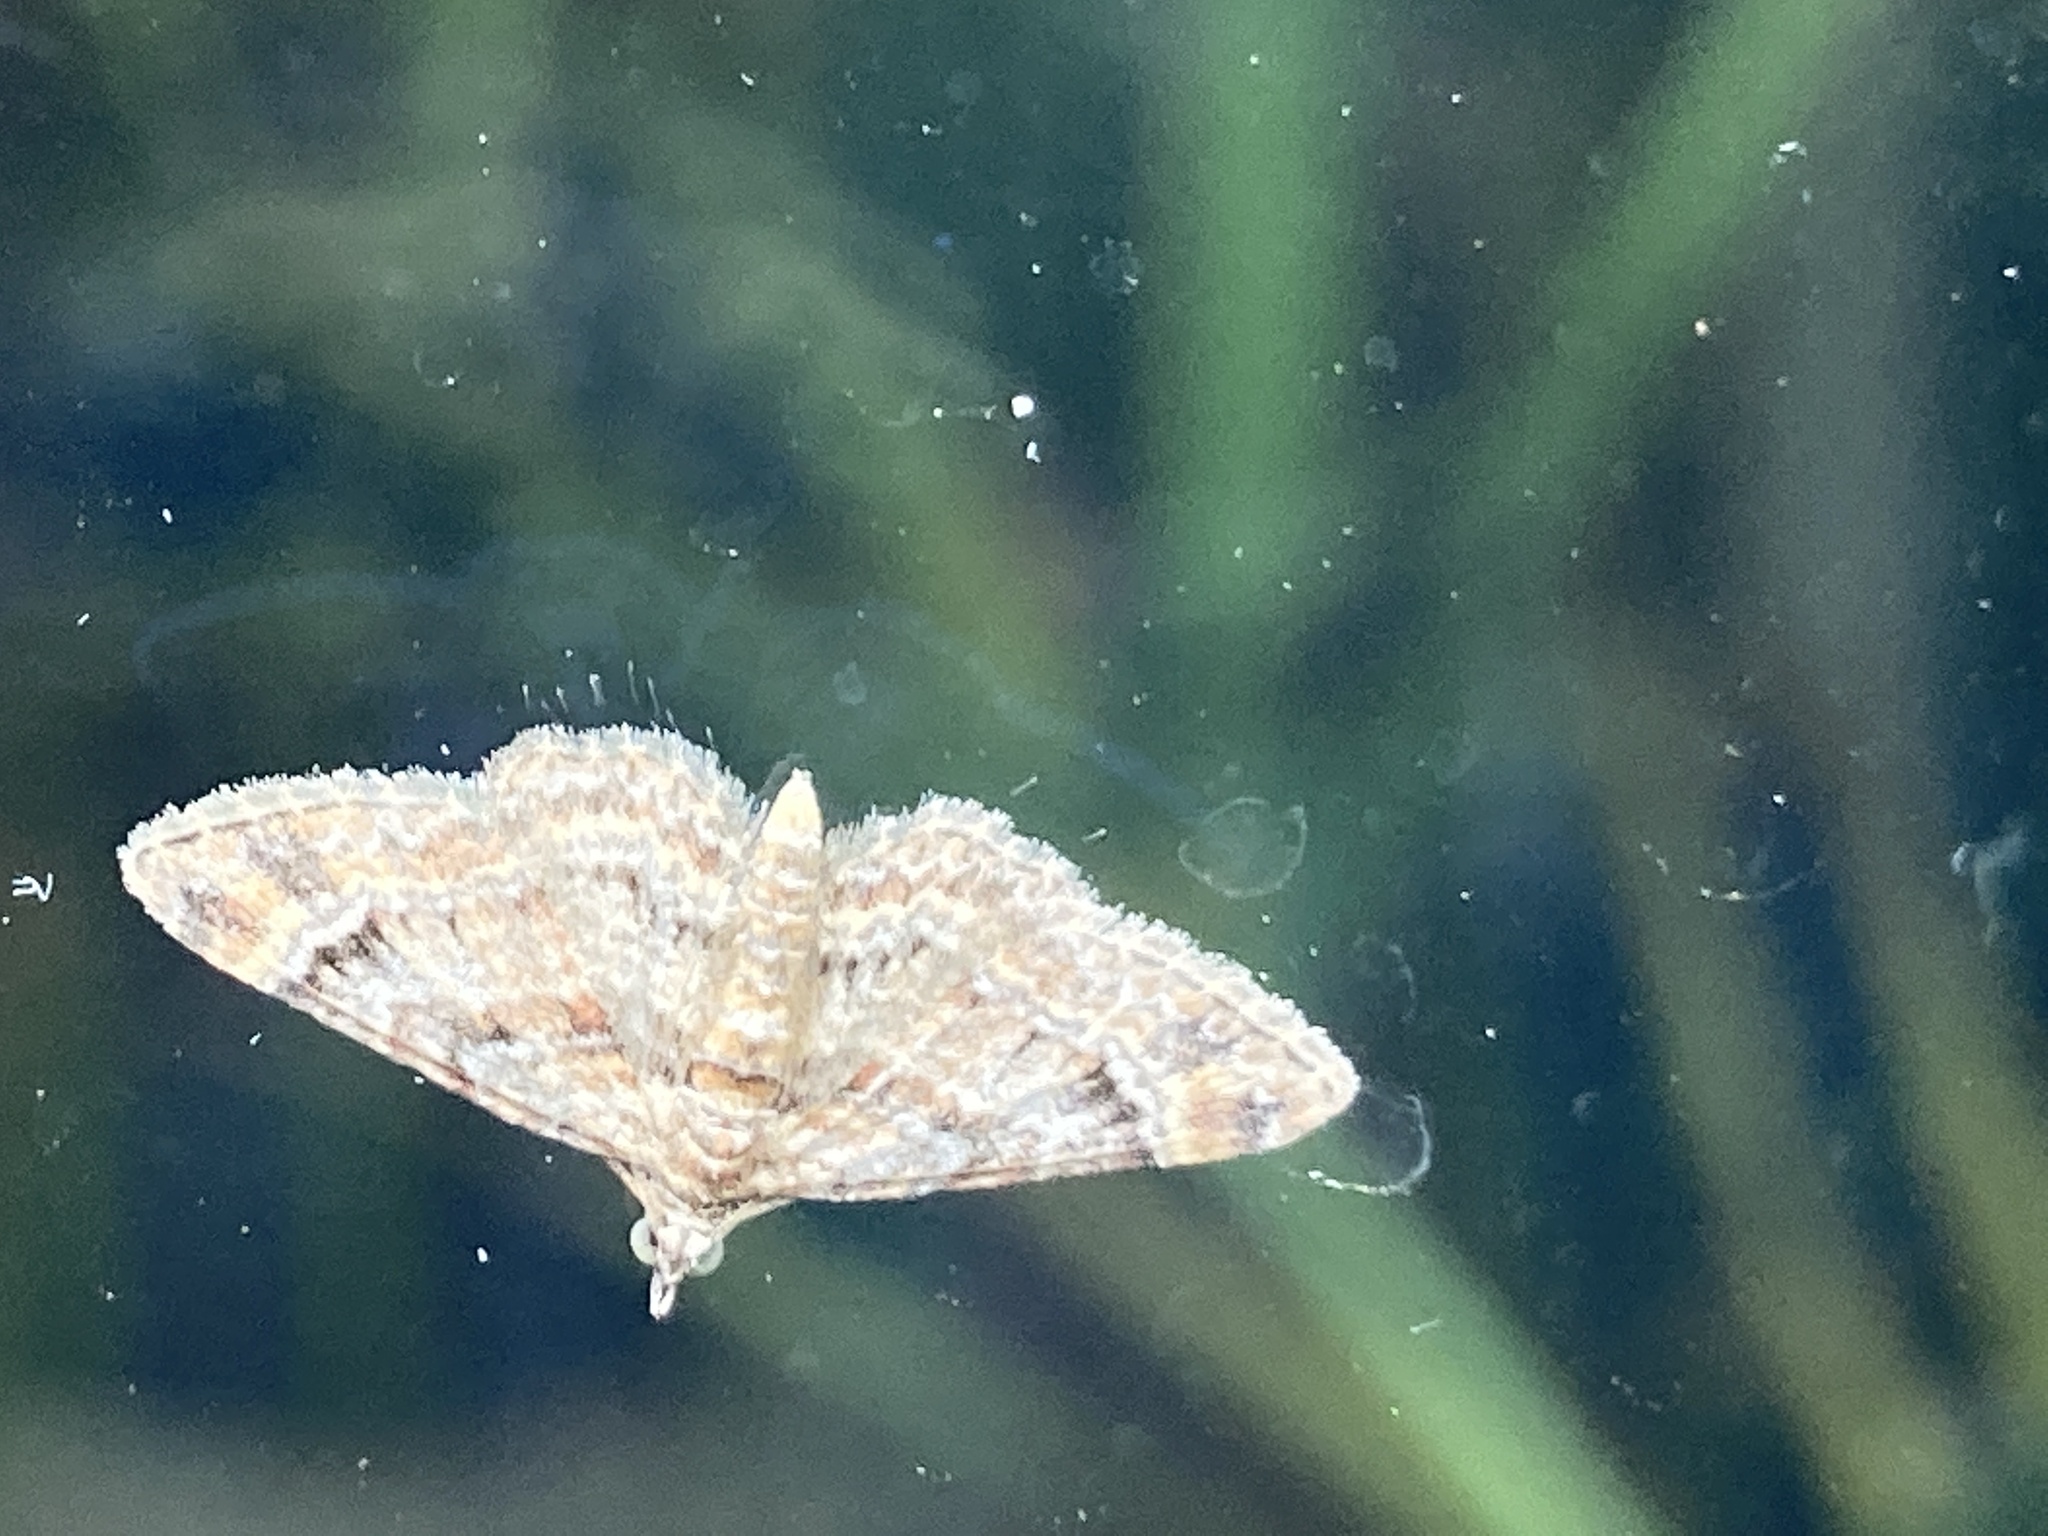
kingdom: Animalia
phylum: Arthropoda
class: Insecta
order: Lepidoptera
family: Geometridae
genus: Gymnoscelis
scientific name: Gymnoscelis rufifasciata
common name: Double-striped pug
